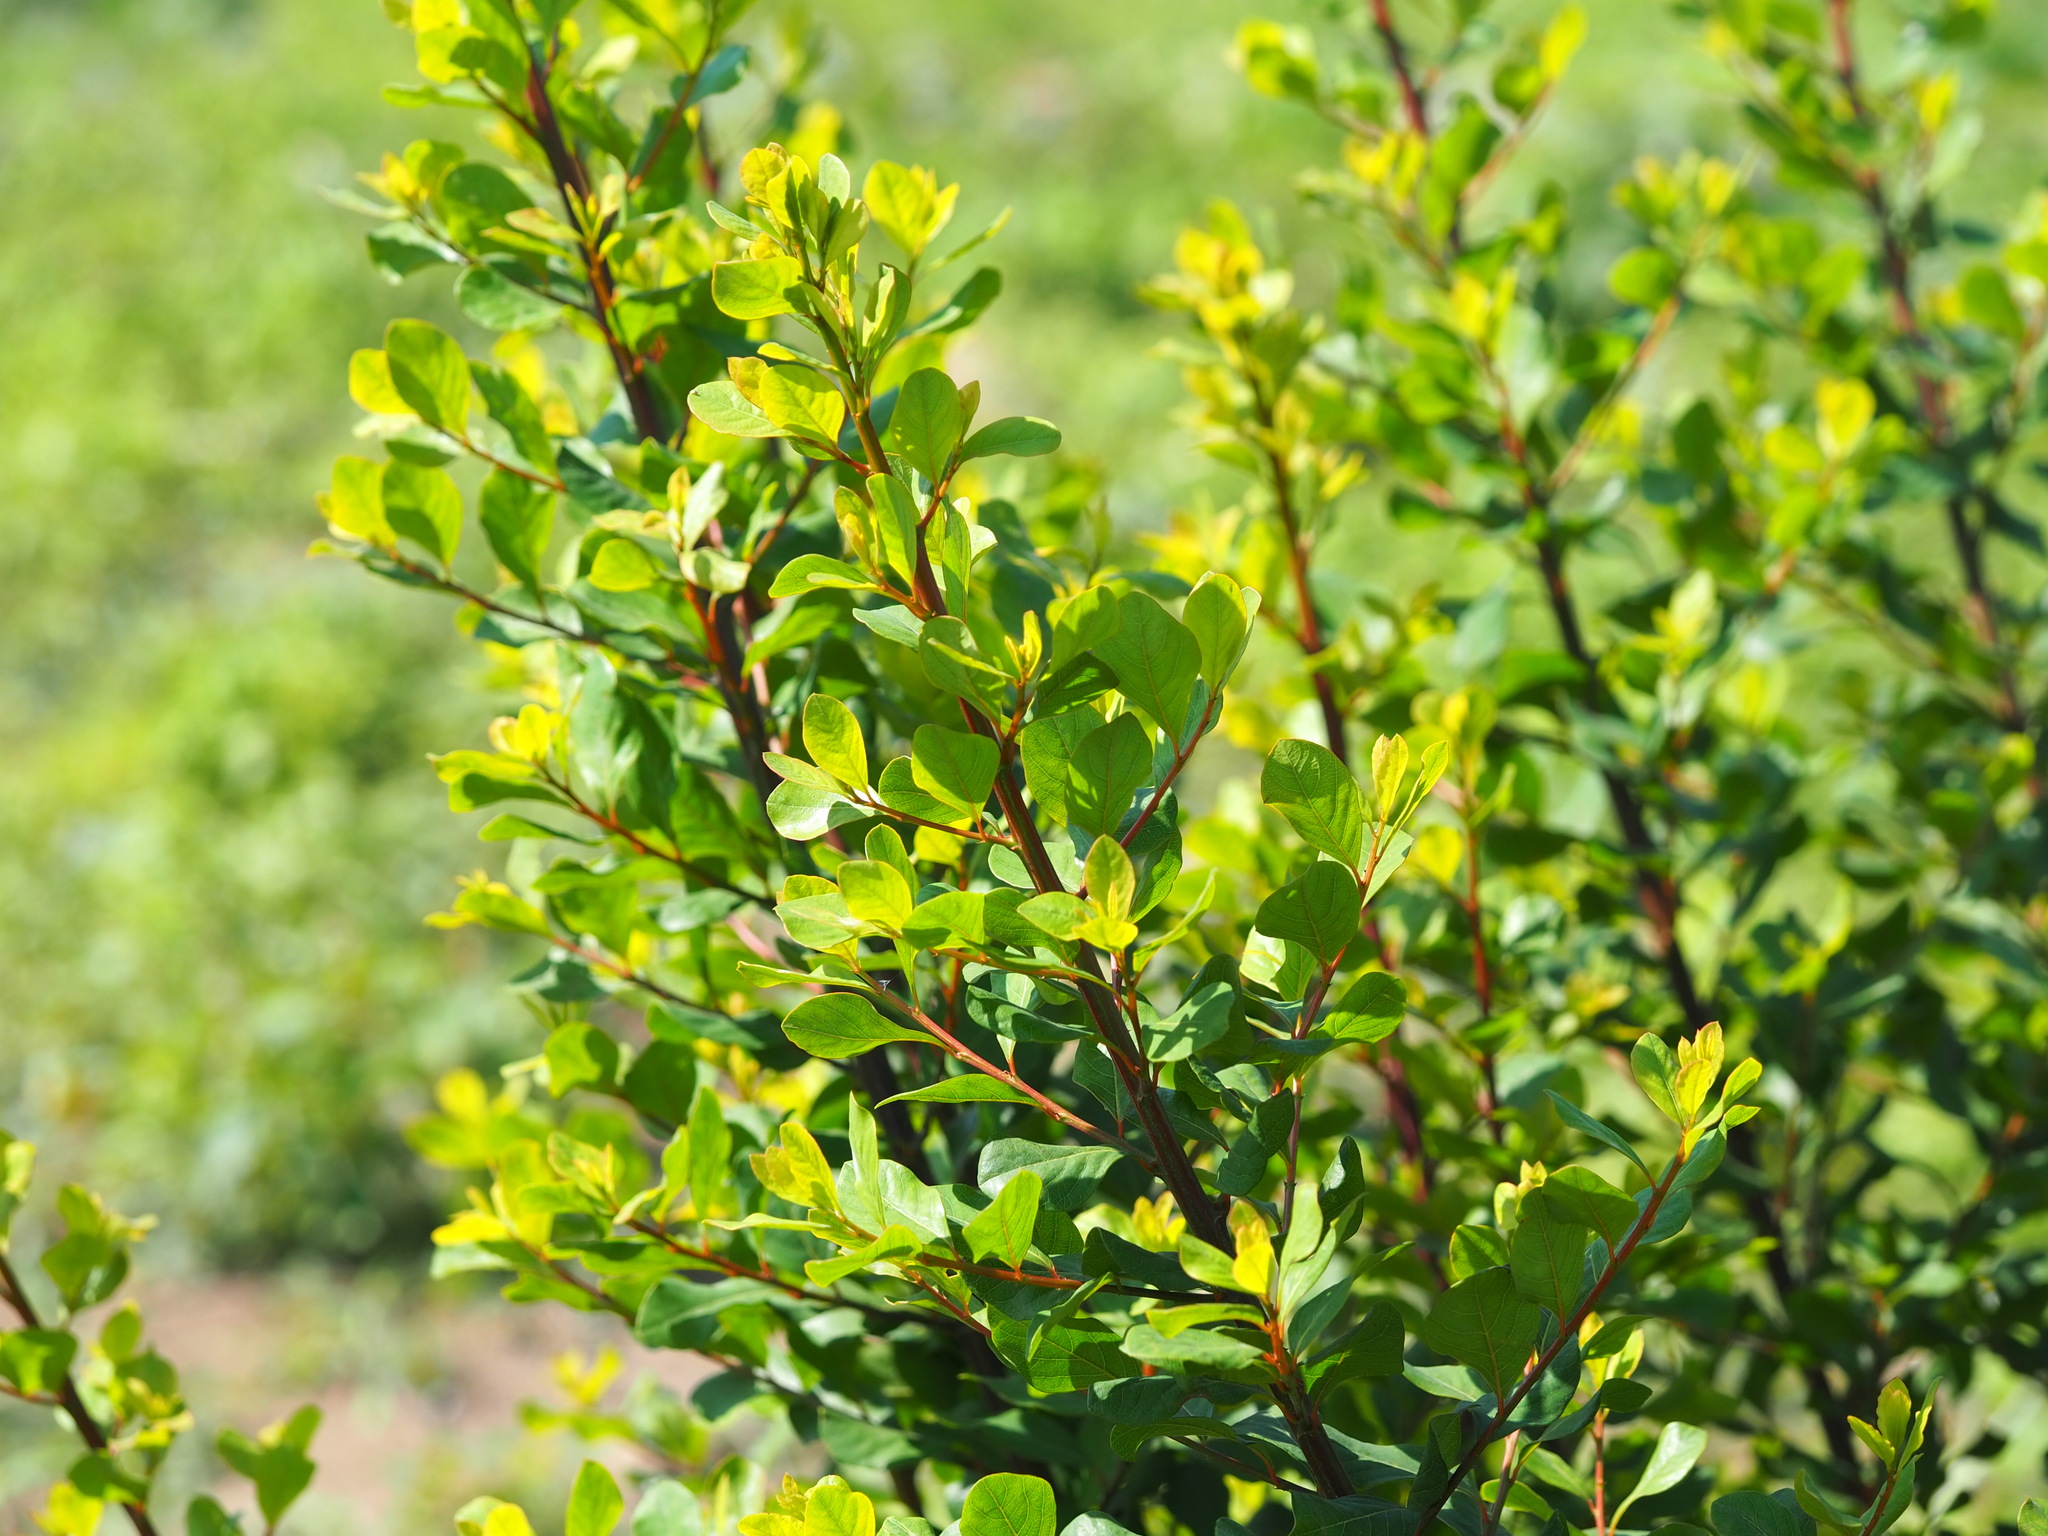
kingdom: Plantae
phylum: Tracheophyta
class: Magnoliopsida
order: Malpighiales
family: Phyllanthaceae
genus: Flueggea
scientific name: Flueggea virosa
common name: Common bushweed
